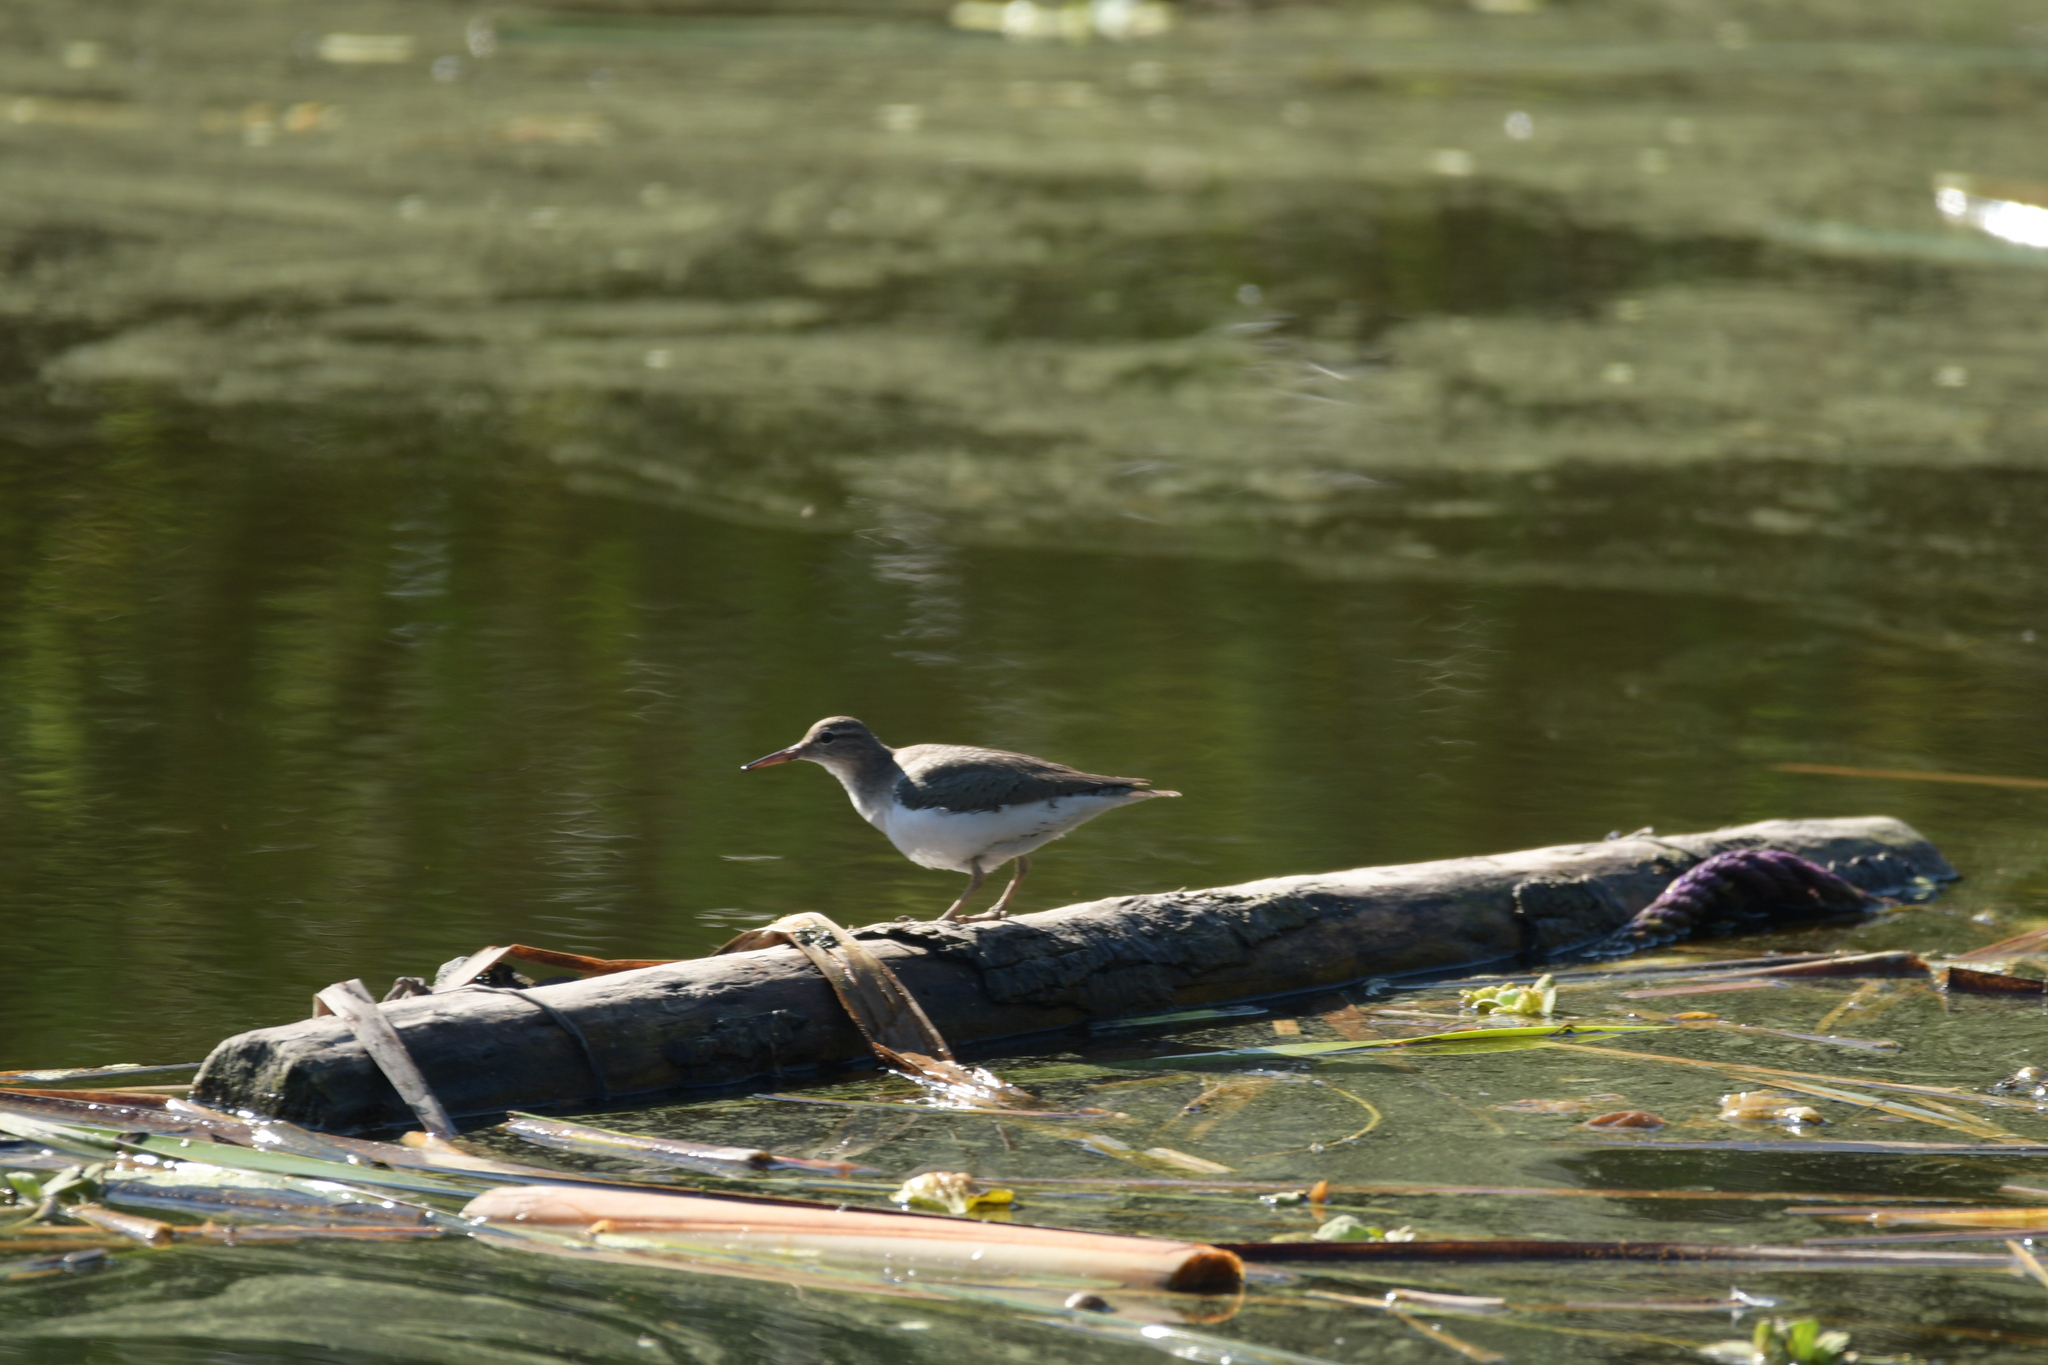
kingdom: Animalia
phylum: Chordata
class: Aves
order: Charadriiformes
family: Scolopacidae
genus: Actitis
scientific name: Actitis macularius
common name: Spotted sandpiper
